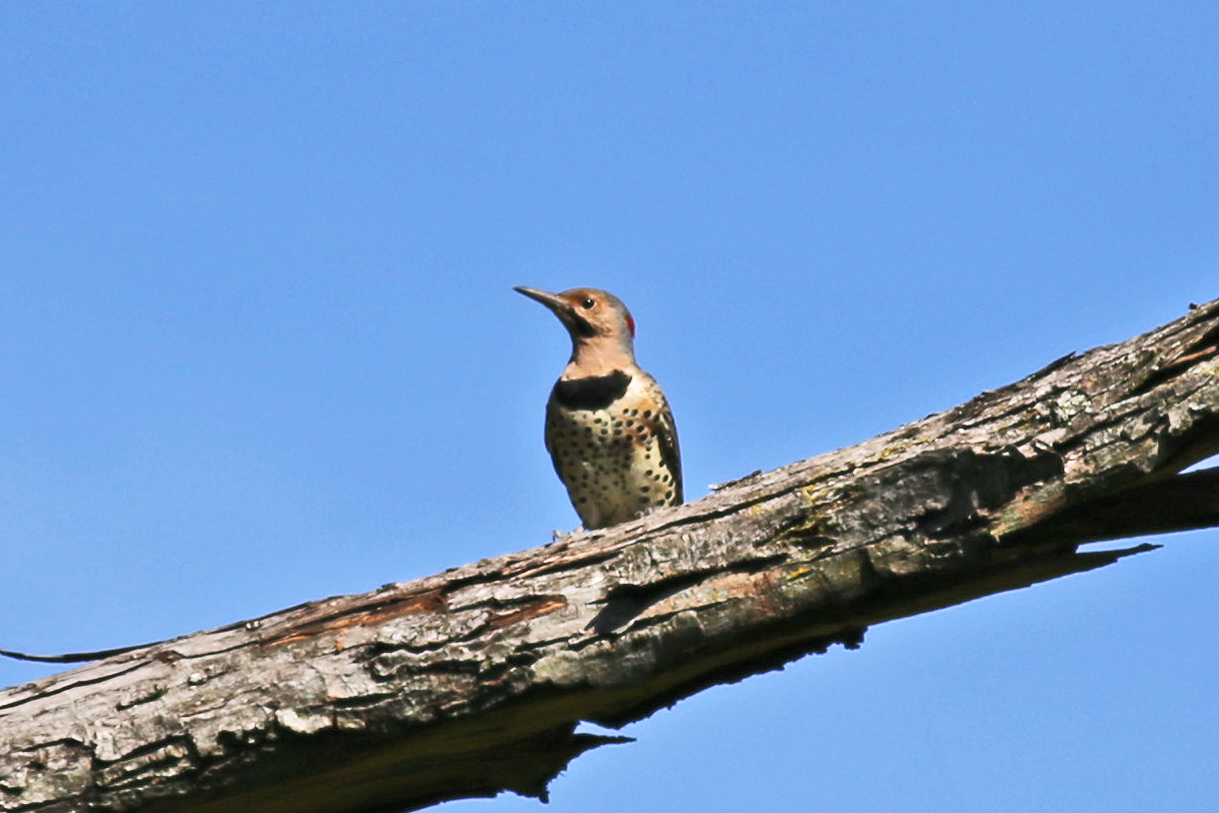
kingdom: Animalia
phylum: Chordata
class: Aves
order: Piciformes
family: Picidae
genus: Colaptes
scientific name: Colaptes auratus
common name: Northern flicker
